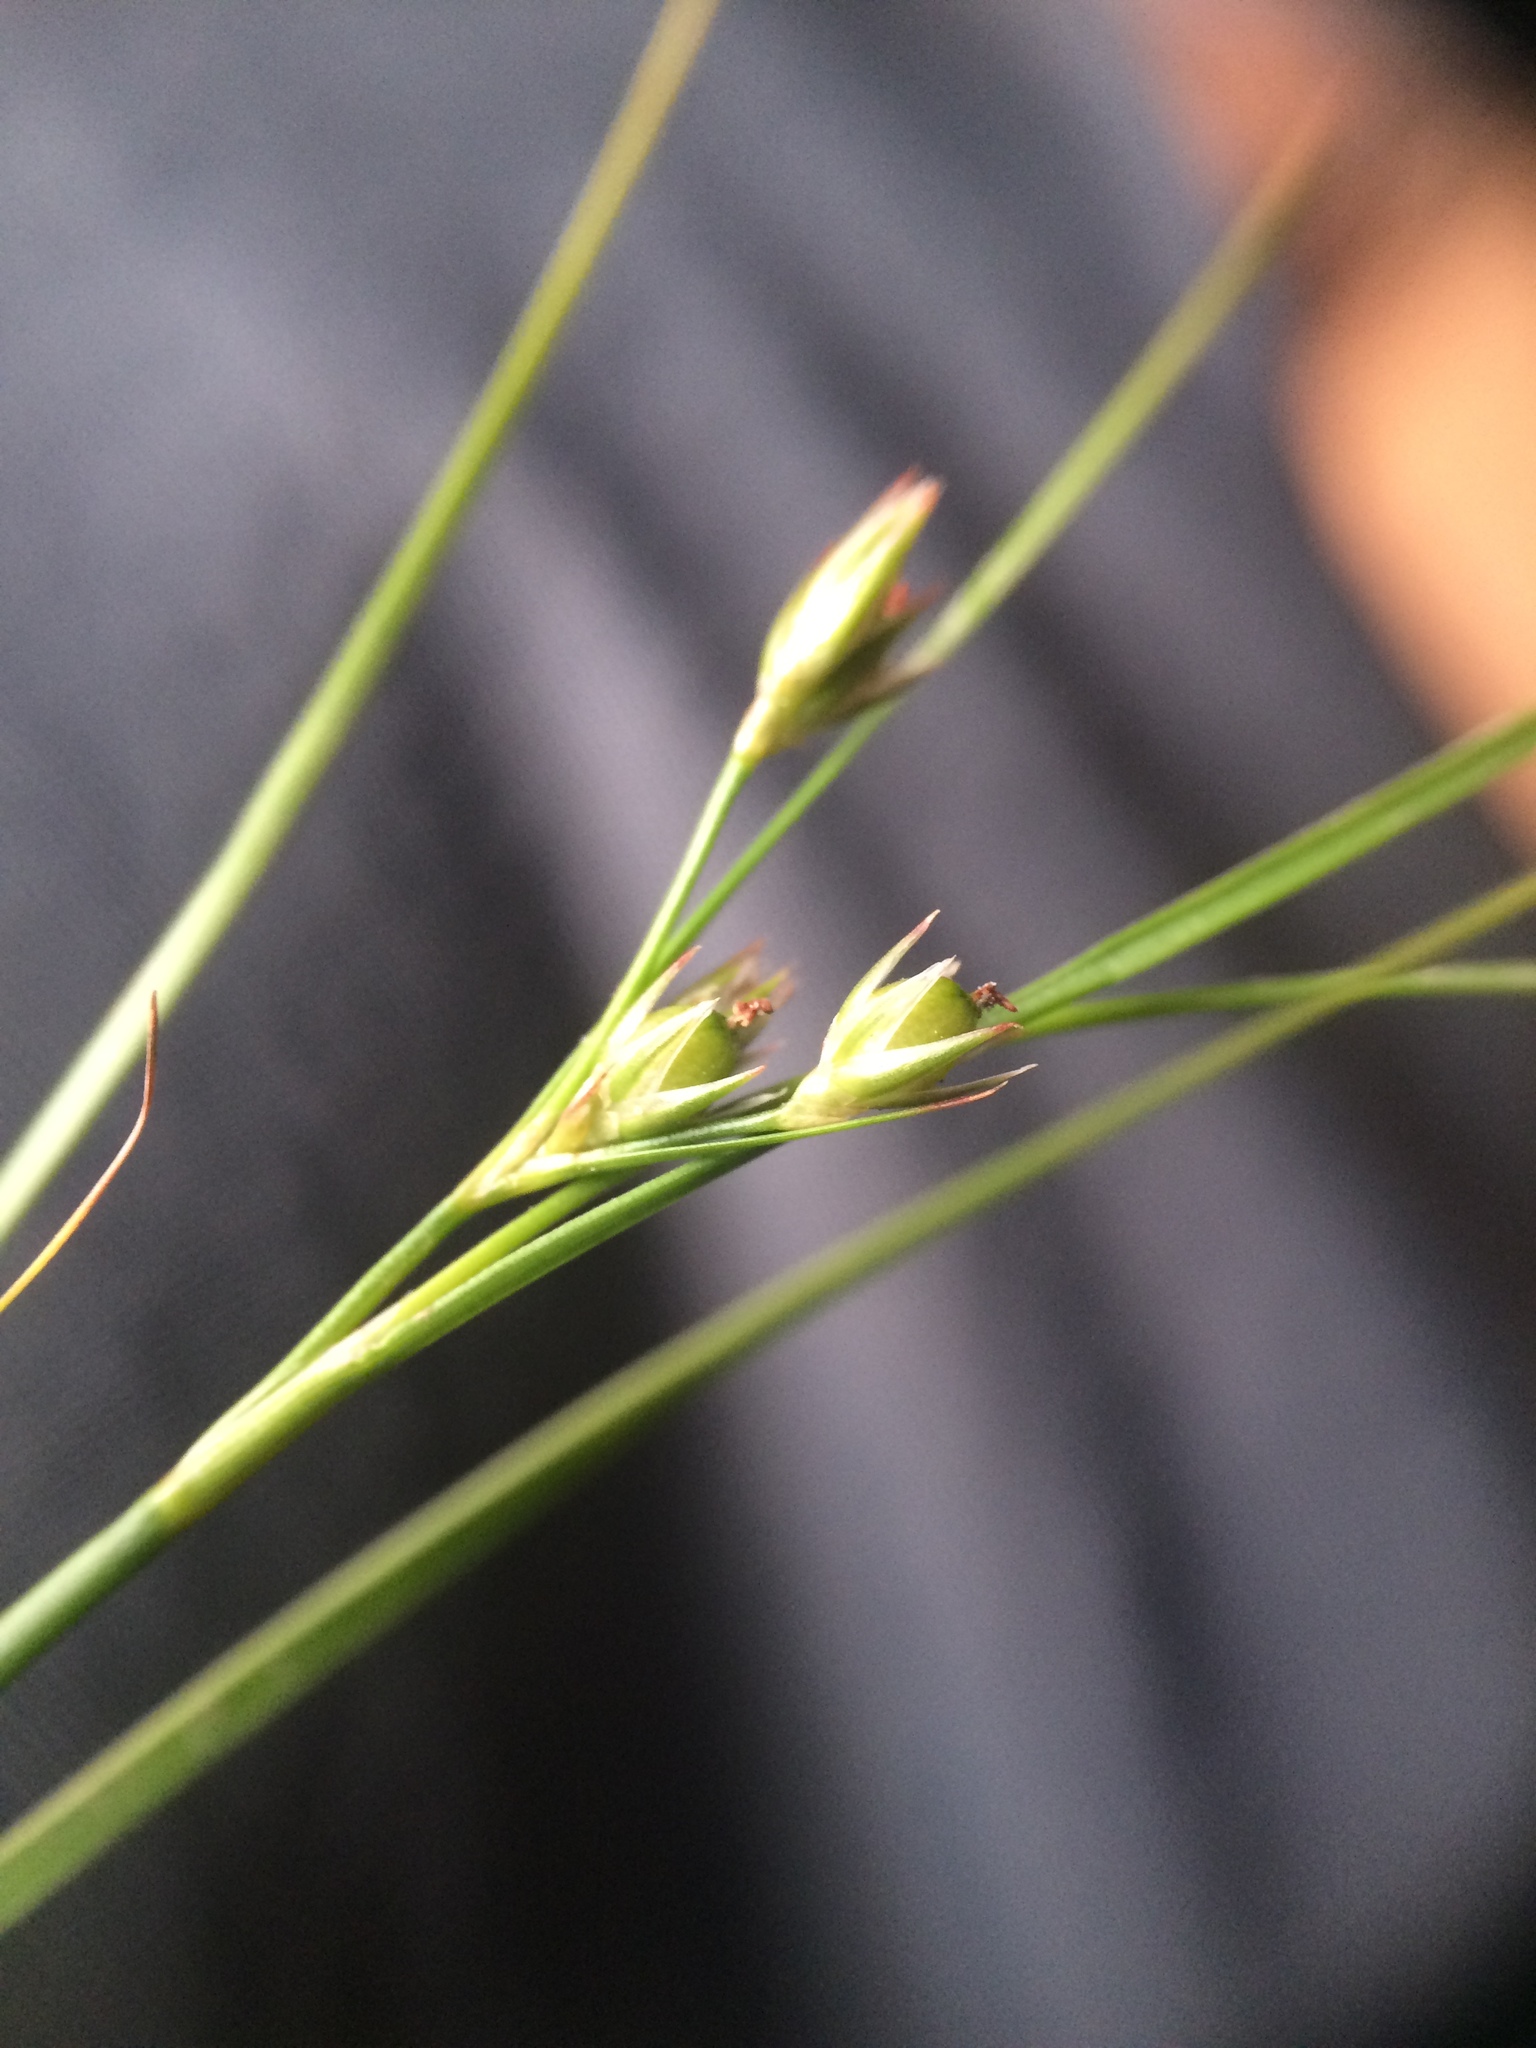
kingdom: Plantae
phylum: Tracheophyta
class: Liliopsida
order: Poales
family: Juncaceae
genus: Juncus
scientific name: Juncus tenuis
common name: Slender rush
